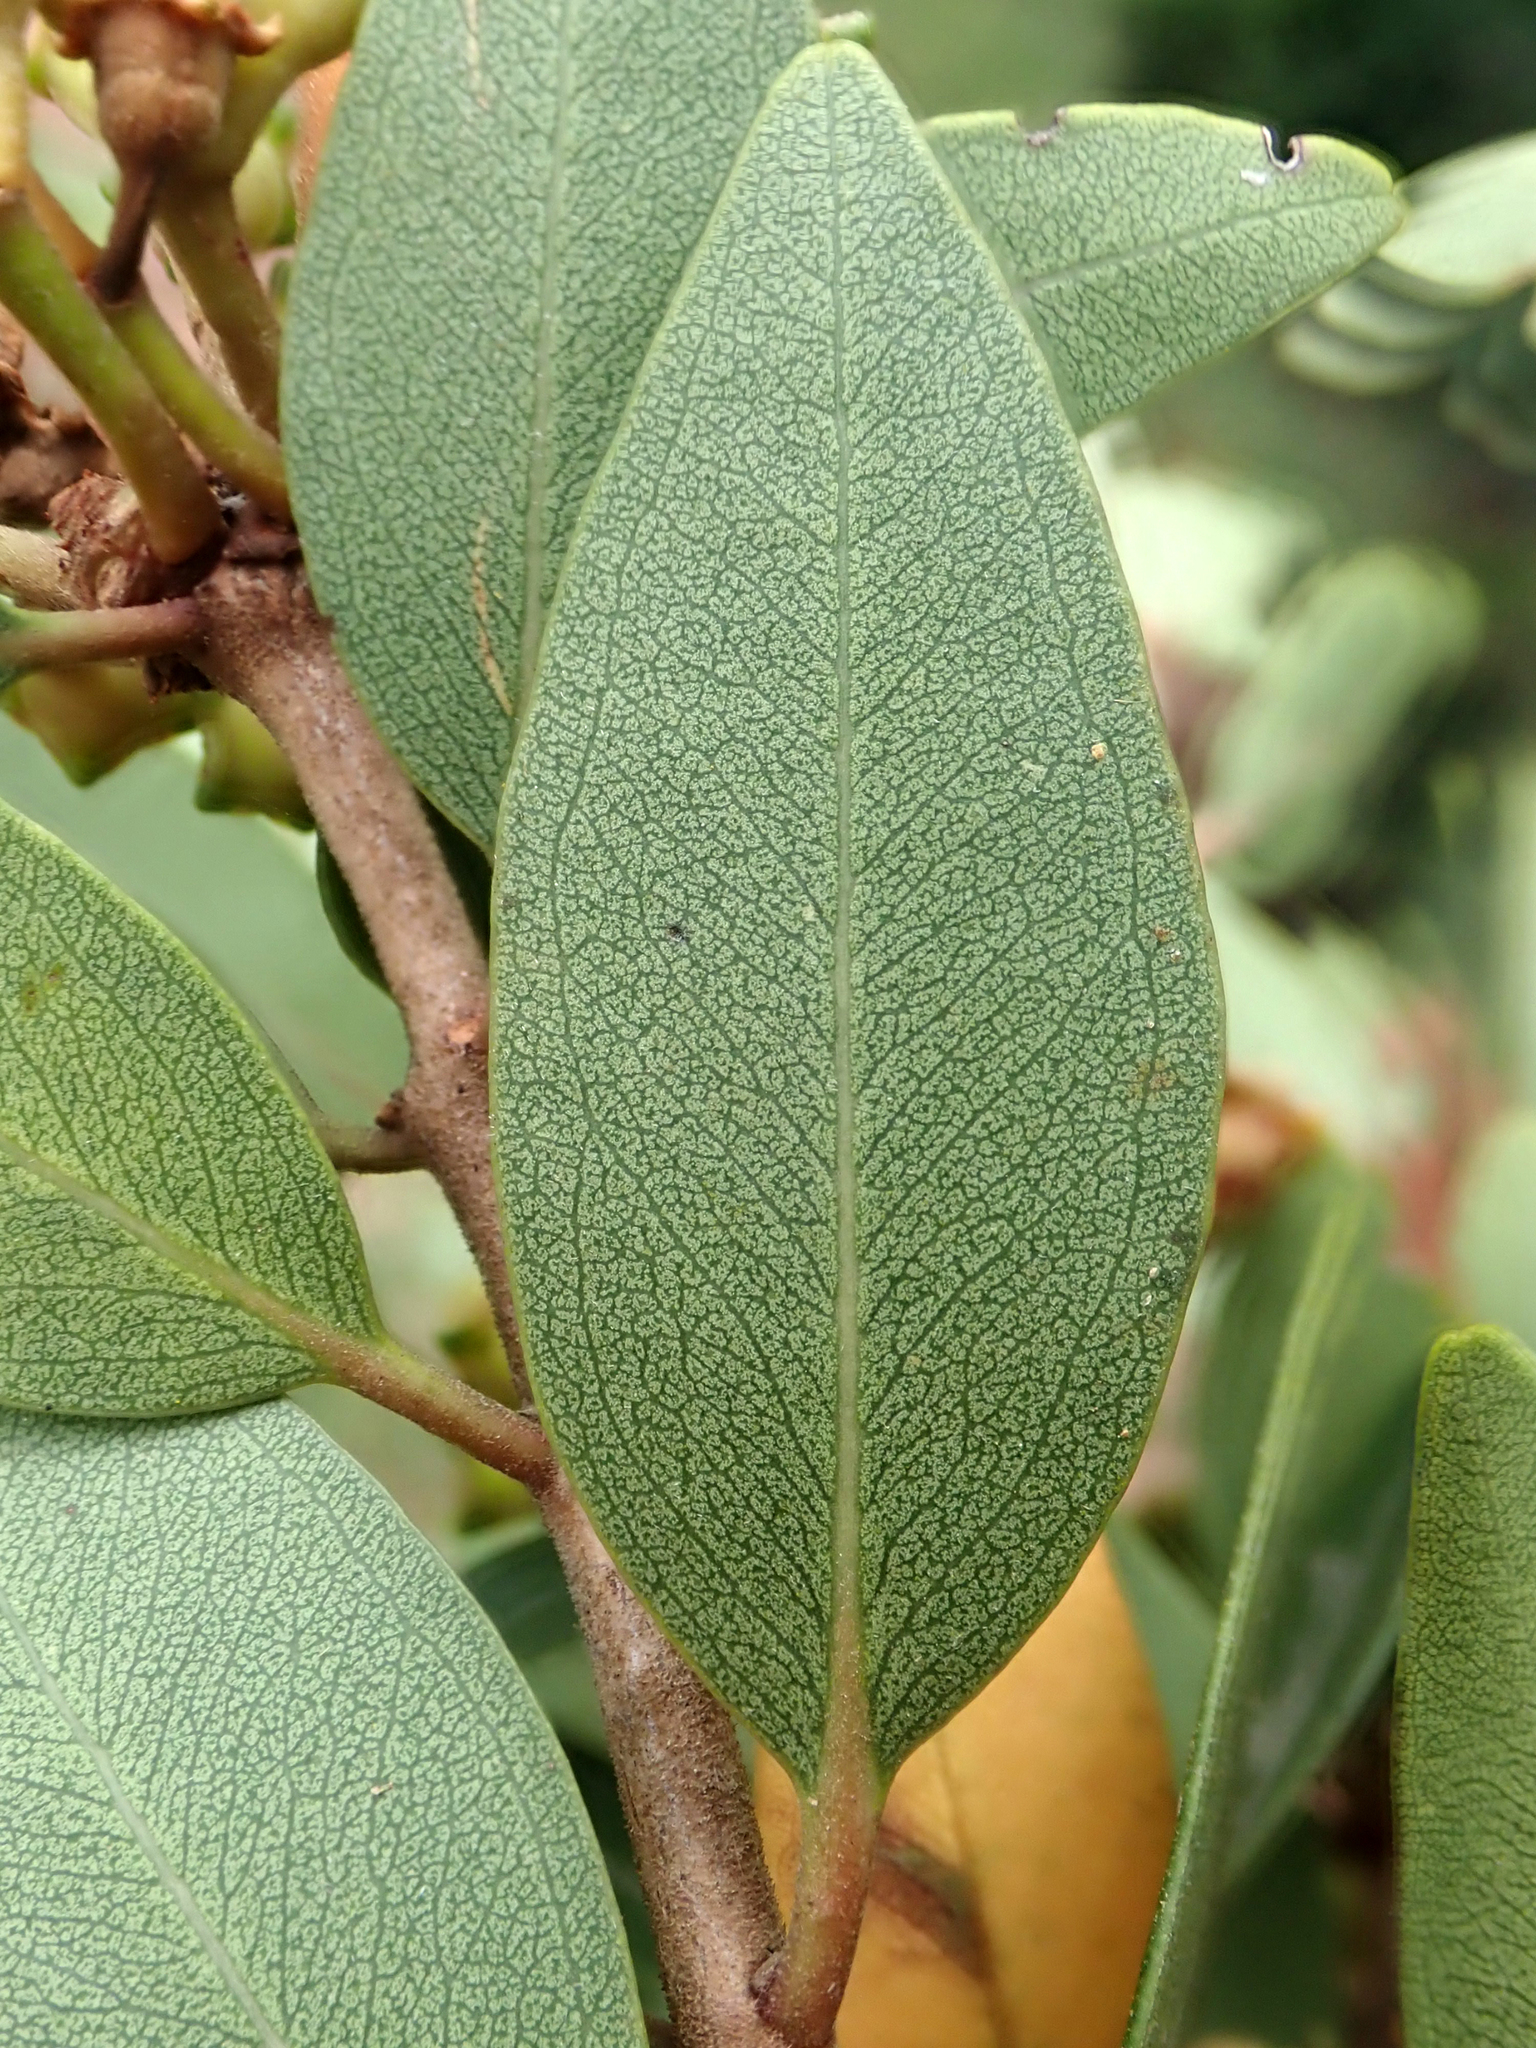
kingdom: Plantae
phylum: Tracheophyta
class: Magnoliopsida
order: Myrtales
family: Myrtaceae
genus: Metrosideros
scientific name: Metrosideros robusta
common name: Northern rata
